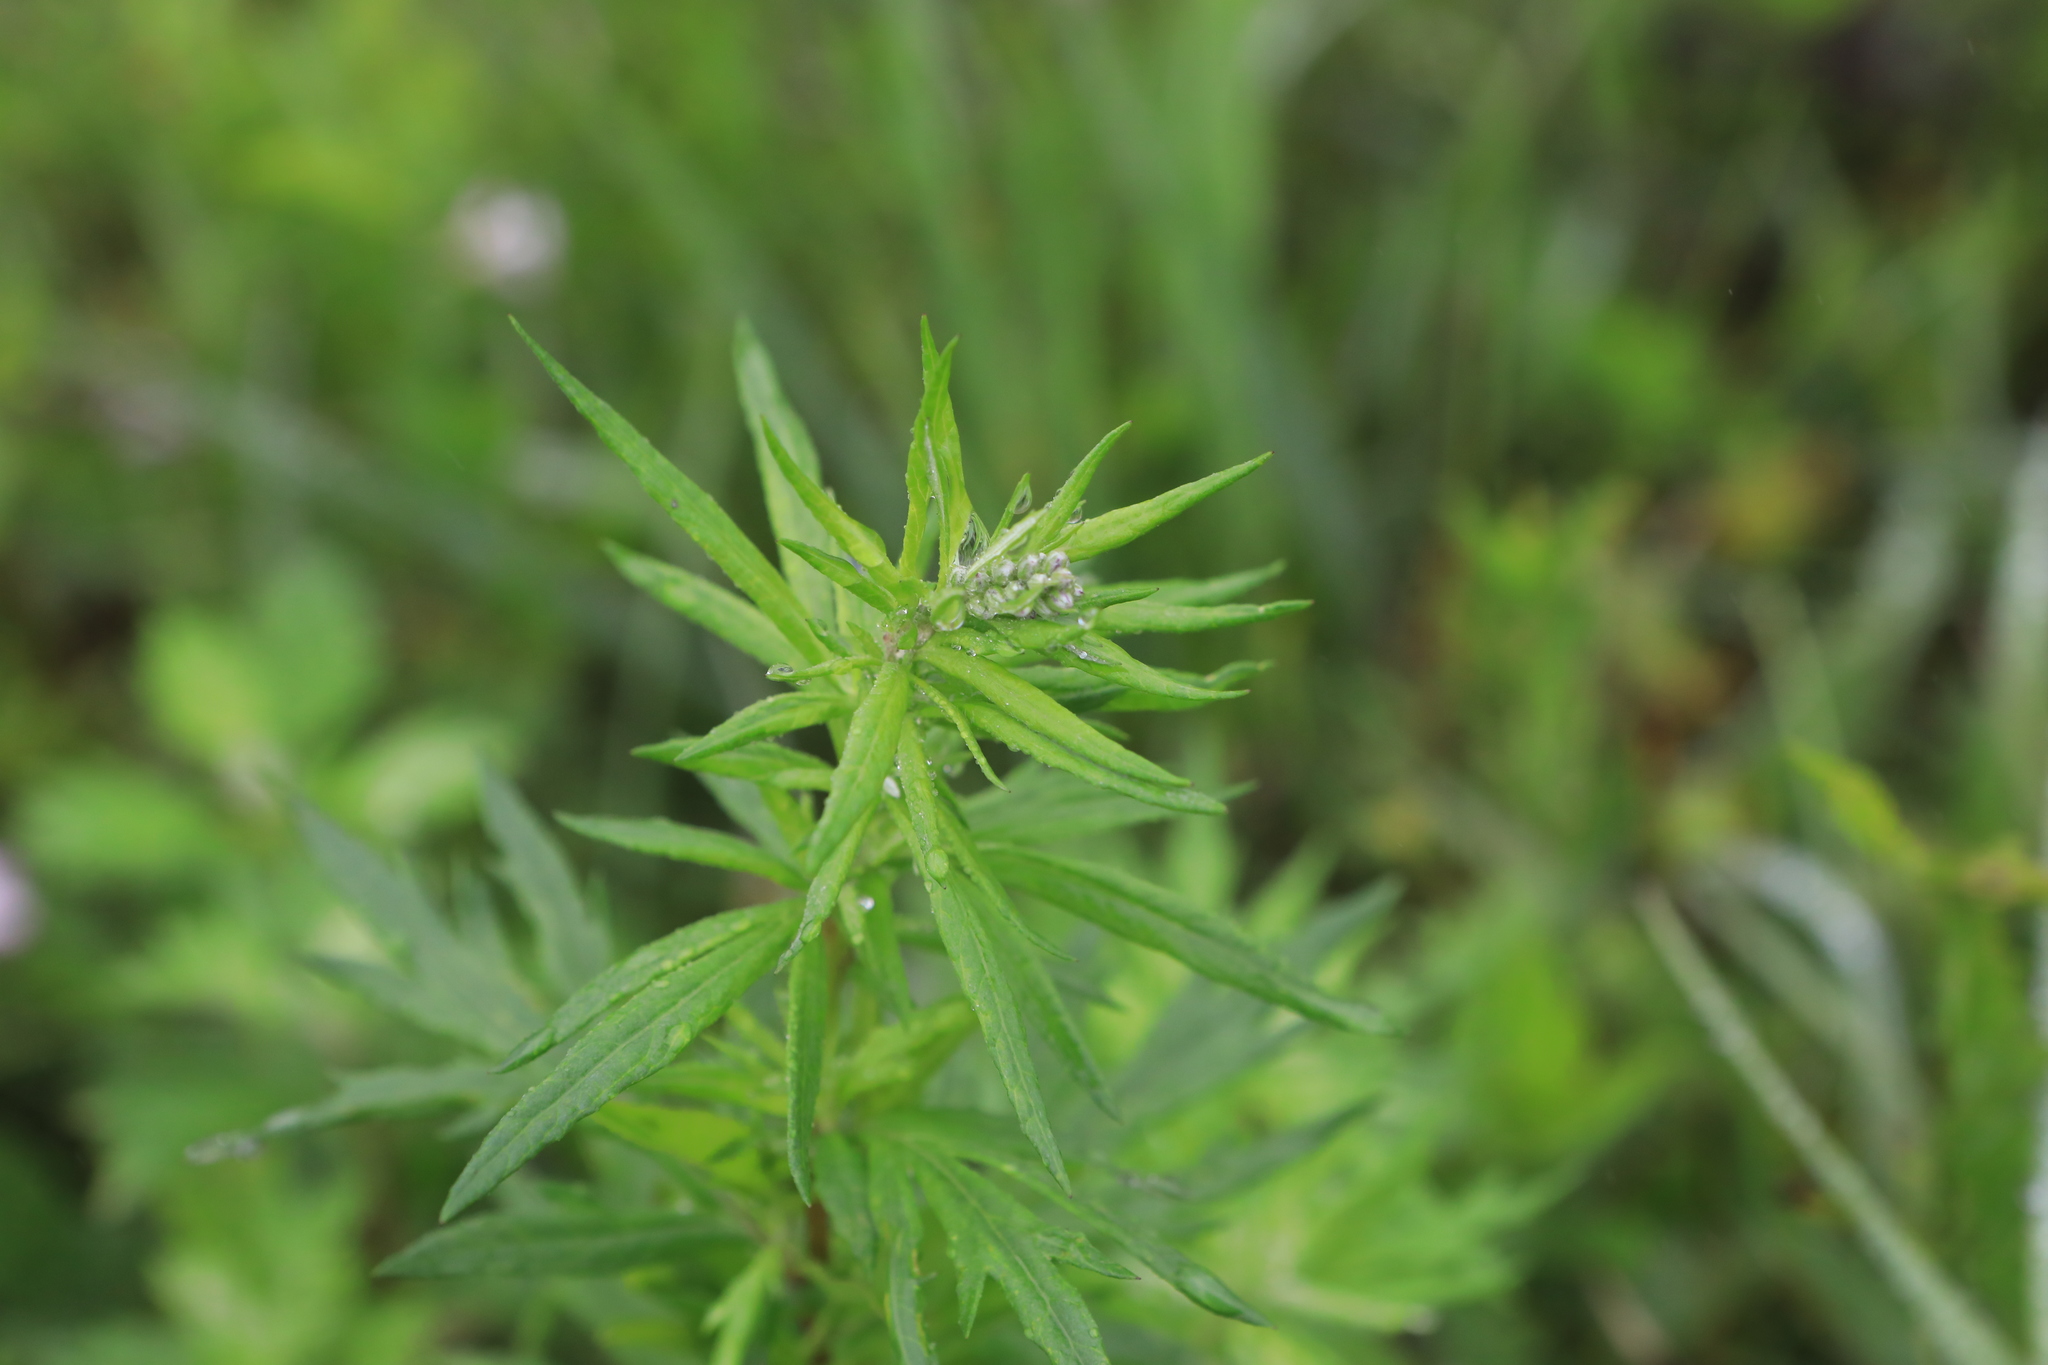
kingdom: Plantae
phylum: Tracheophyta
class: Magnoliopsida
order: Asterales
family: Asteraceae
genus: Artemisia
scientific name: Artemisia vulgaris
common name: Mugwort
